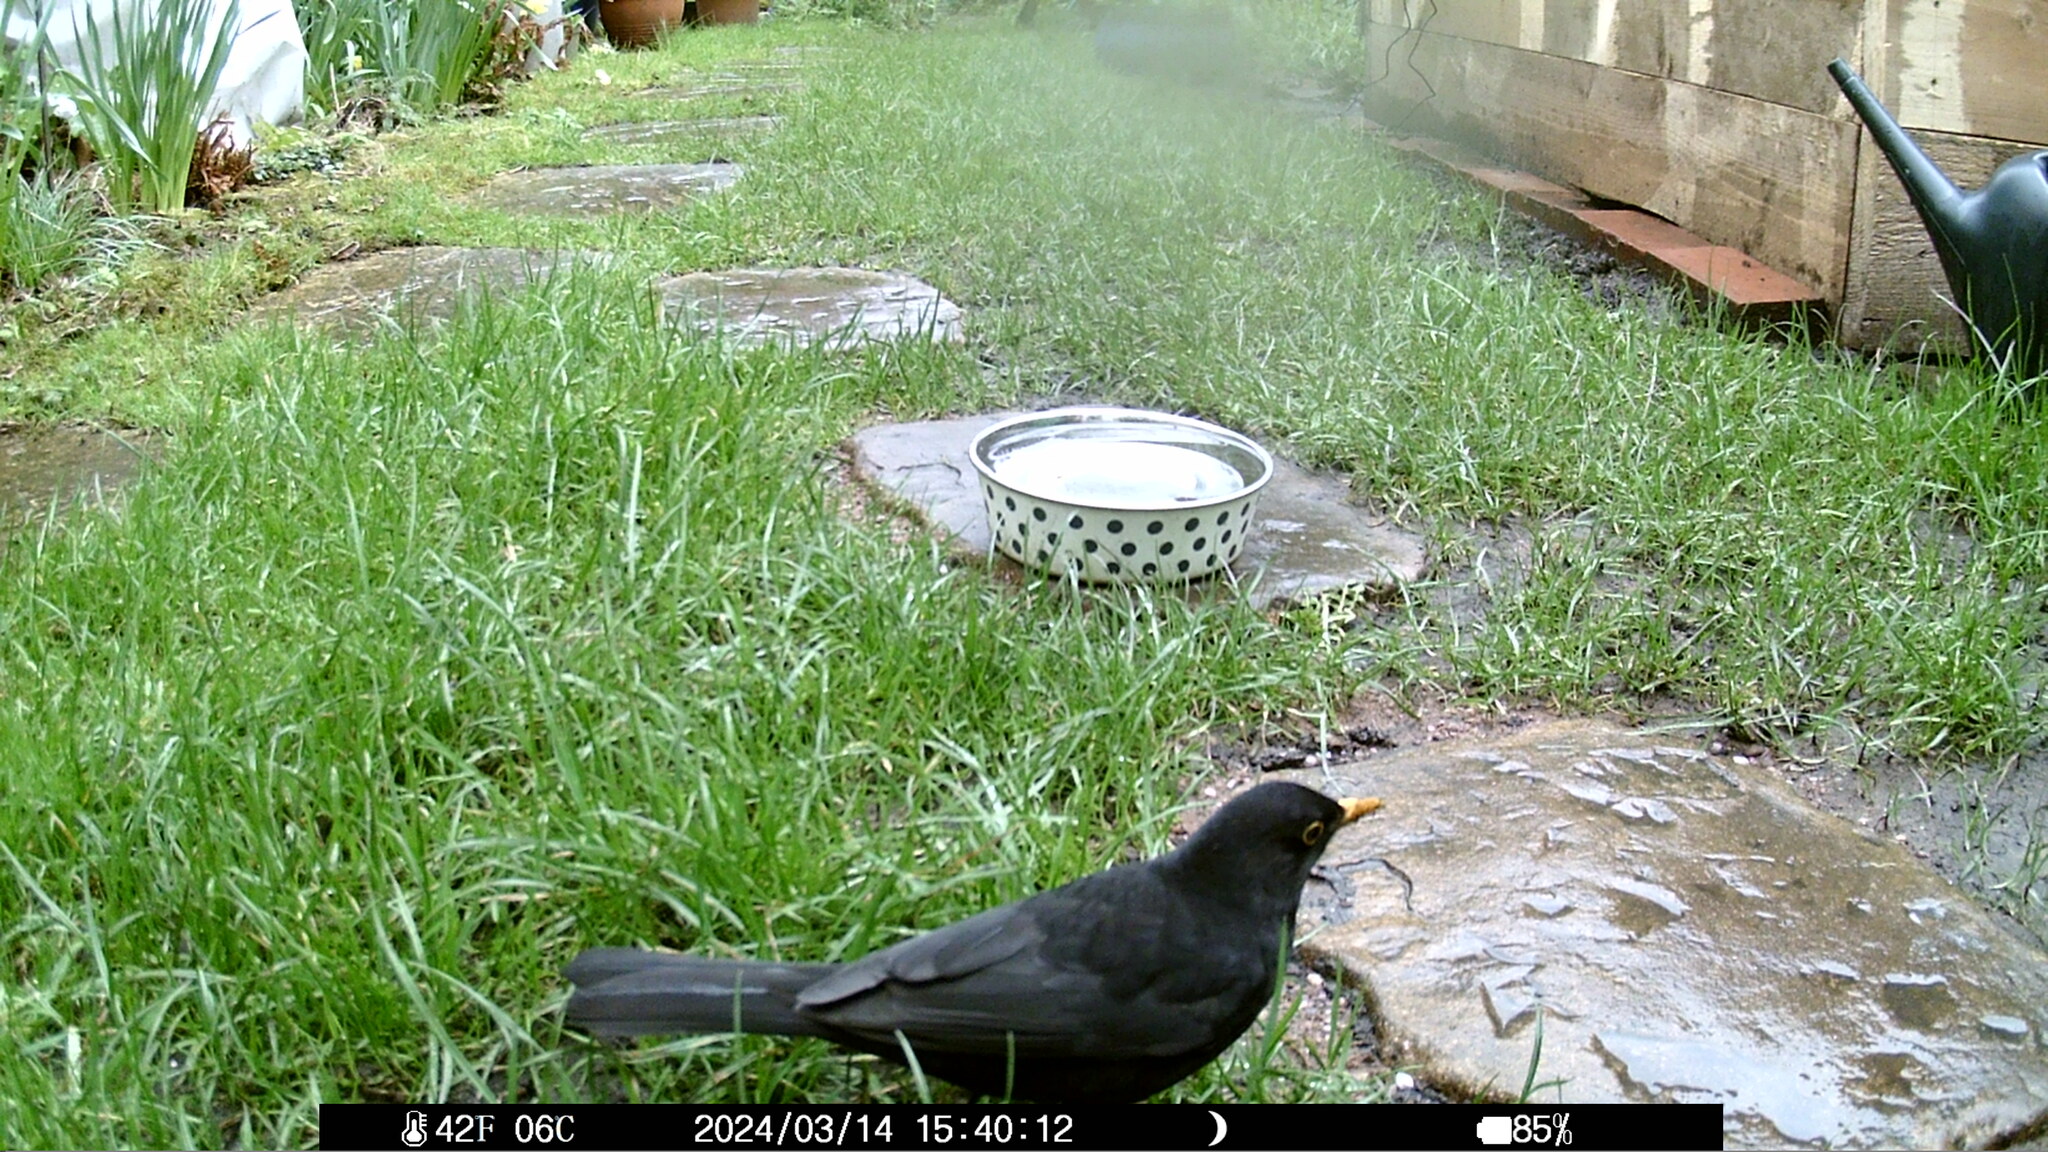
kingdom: Animalia
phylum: Chordata
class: Aves
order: Passeriformes
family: Turdidae
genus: Turdus
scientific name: Turdus merula
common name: Common blackbird
